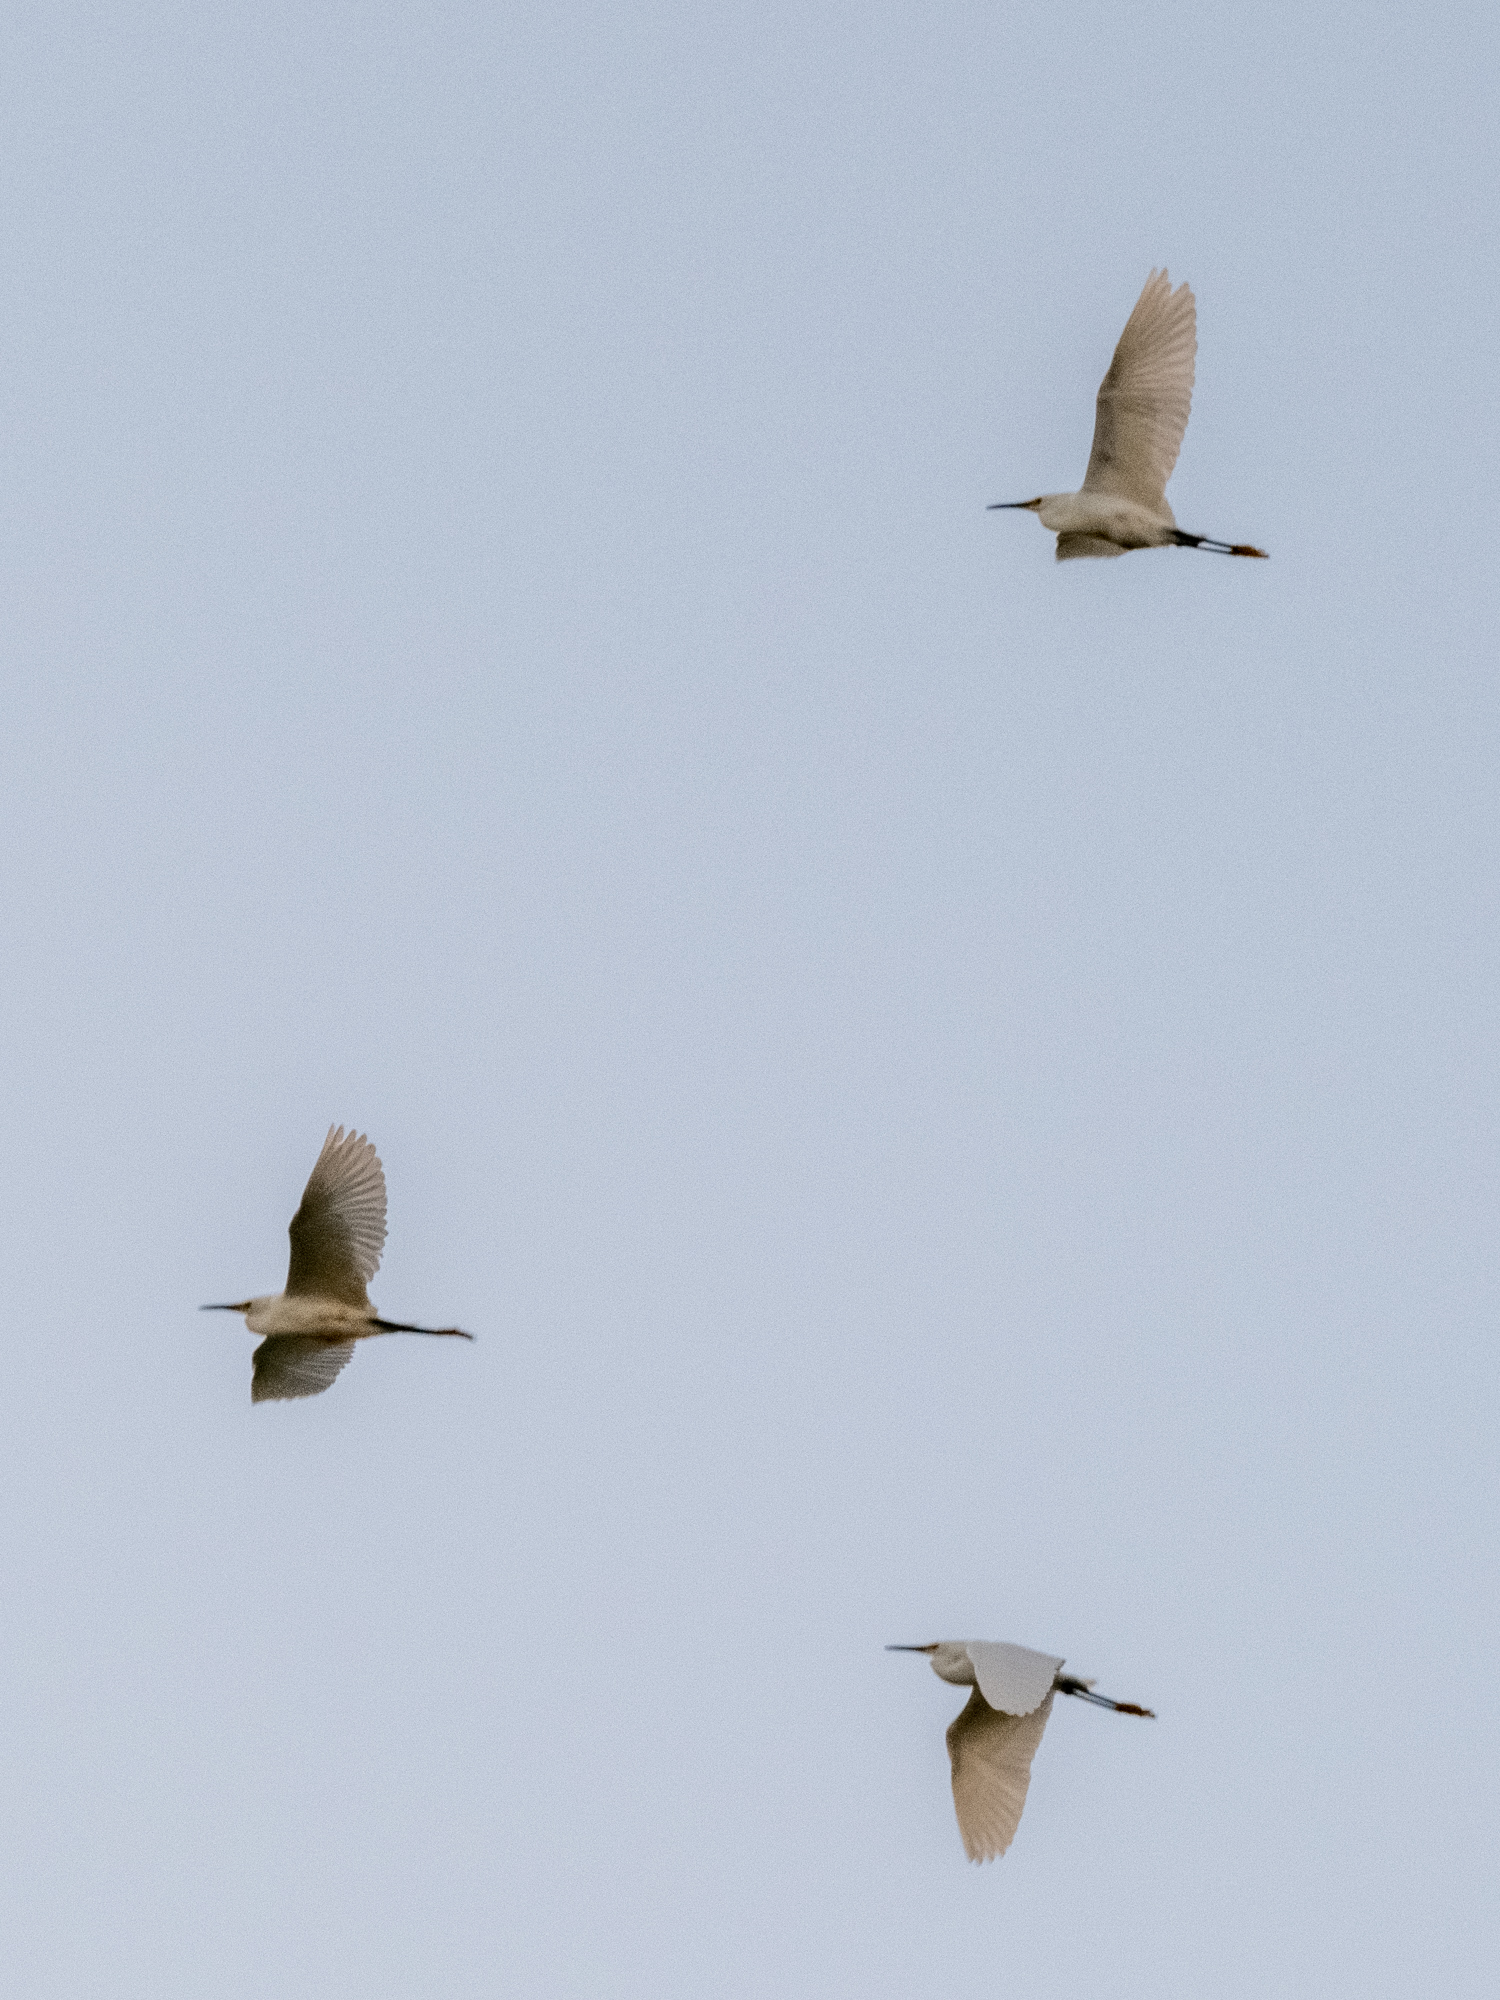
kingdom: Animalia
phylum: Chordata
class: Aves
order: Pelecaniformes
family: Ardeidae
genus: Egretta
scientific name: Egretta thula
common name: Snowy egret
